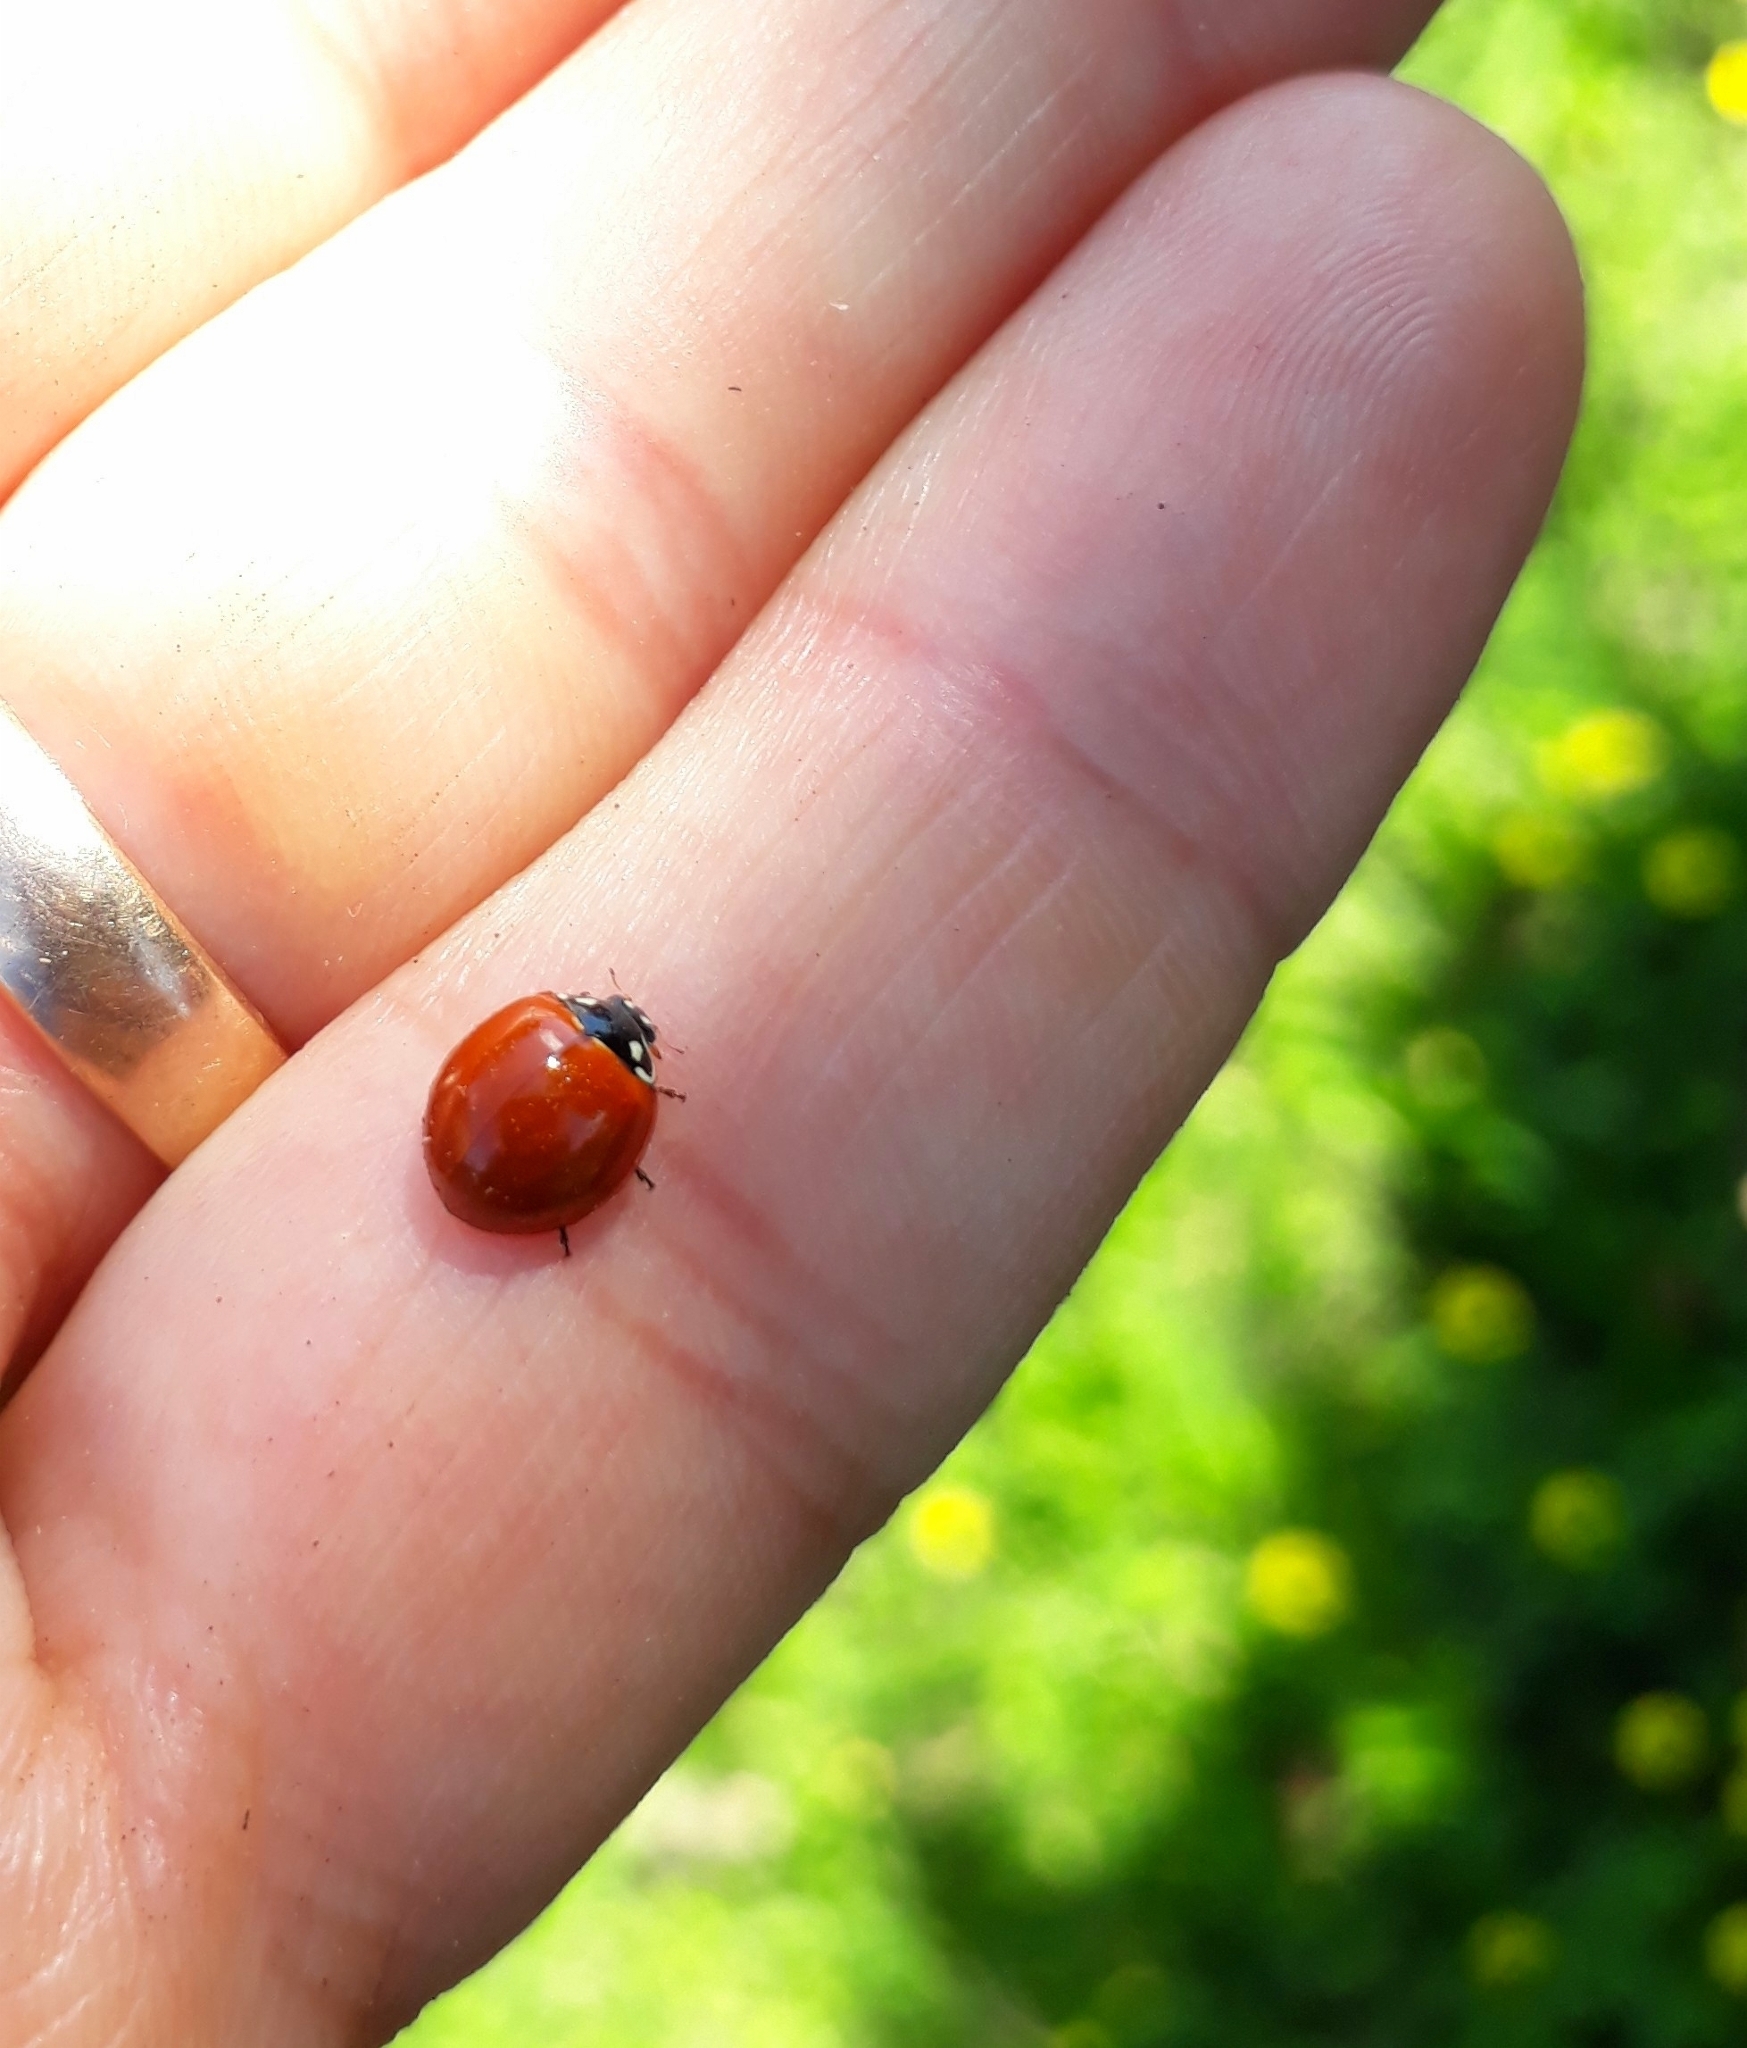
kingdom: Animalia
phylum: Arthropoda
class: Insecta
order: Coleoptera
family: Coccinellidae
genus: Cycloneda
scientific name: Cycloneda sanguinea
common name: Ladybird beetle
